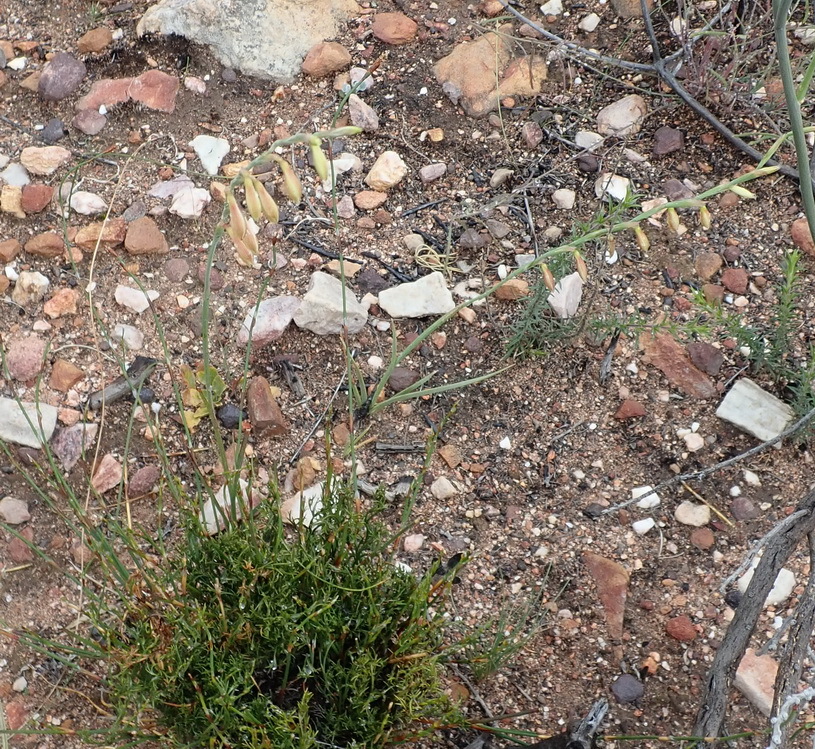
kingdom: Plantae
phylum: Tracheophyta
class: Liliopsida
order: Asparagales
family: Iridaceae
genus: Hesperantha
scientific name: Hesperantha radiata
